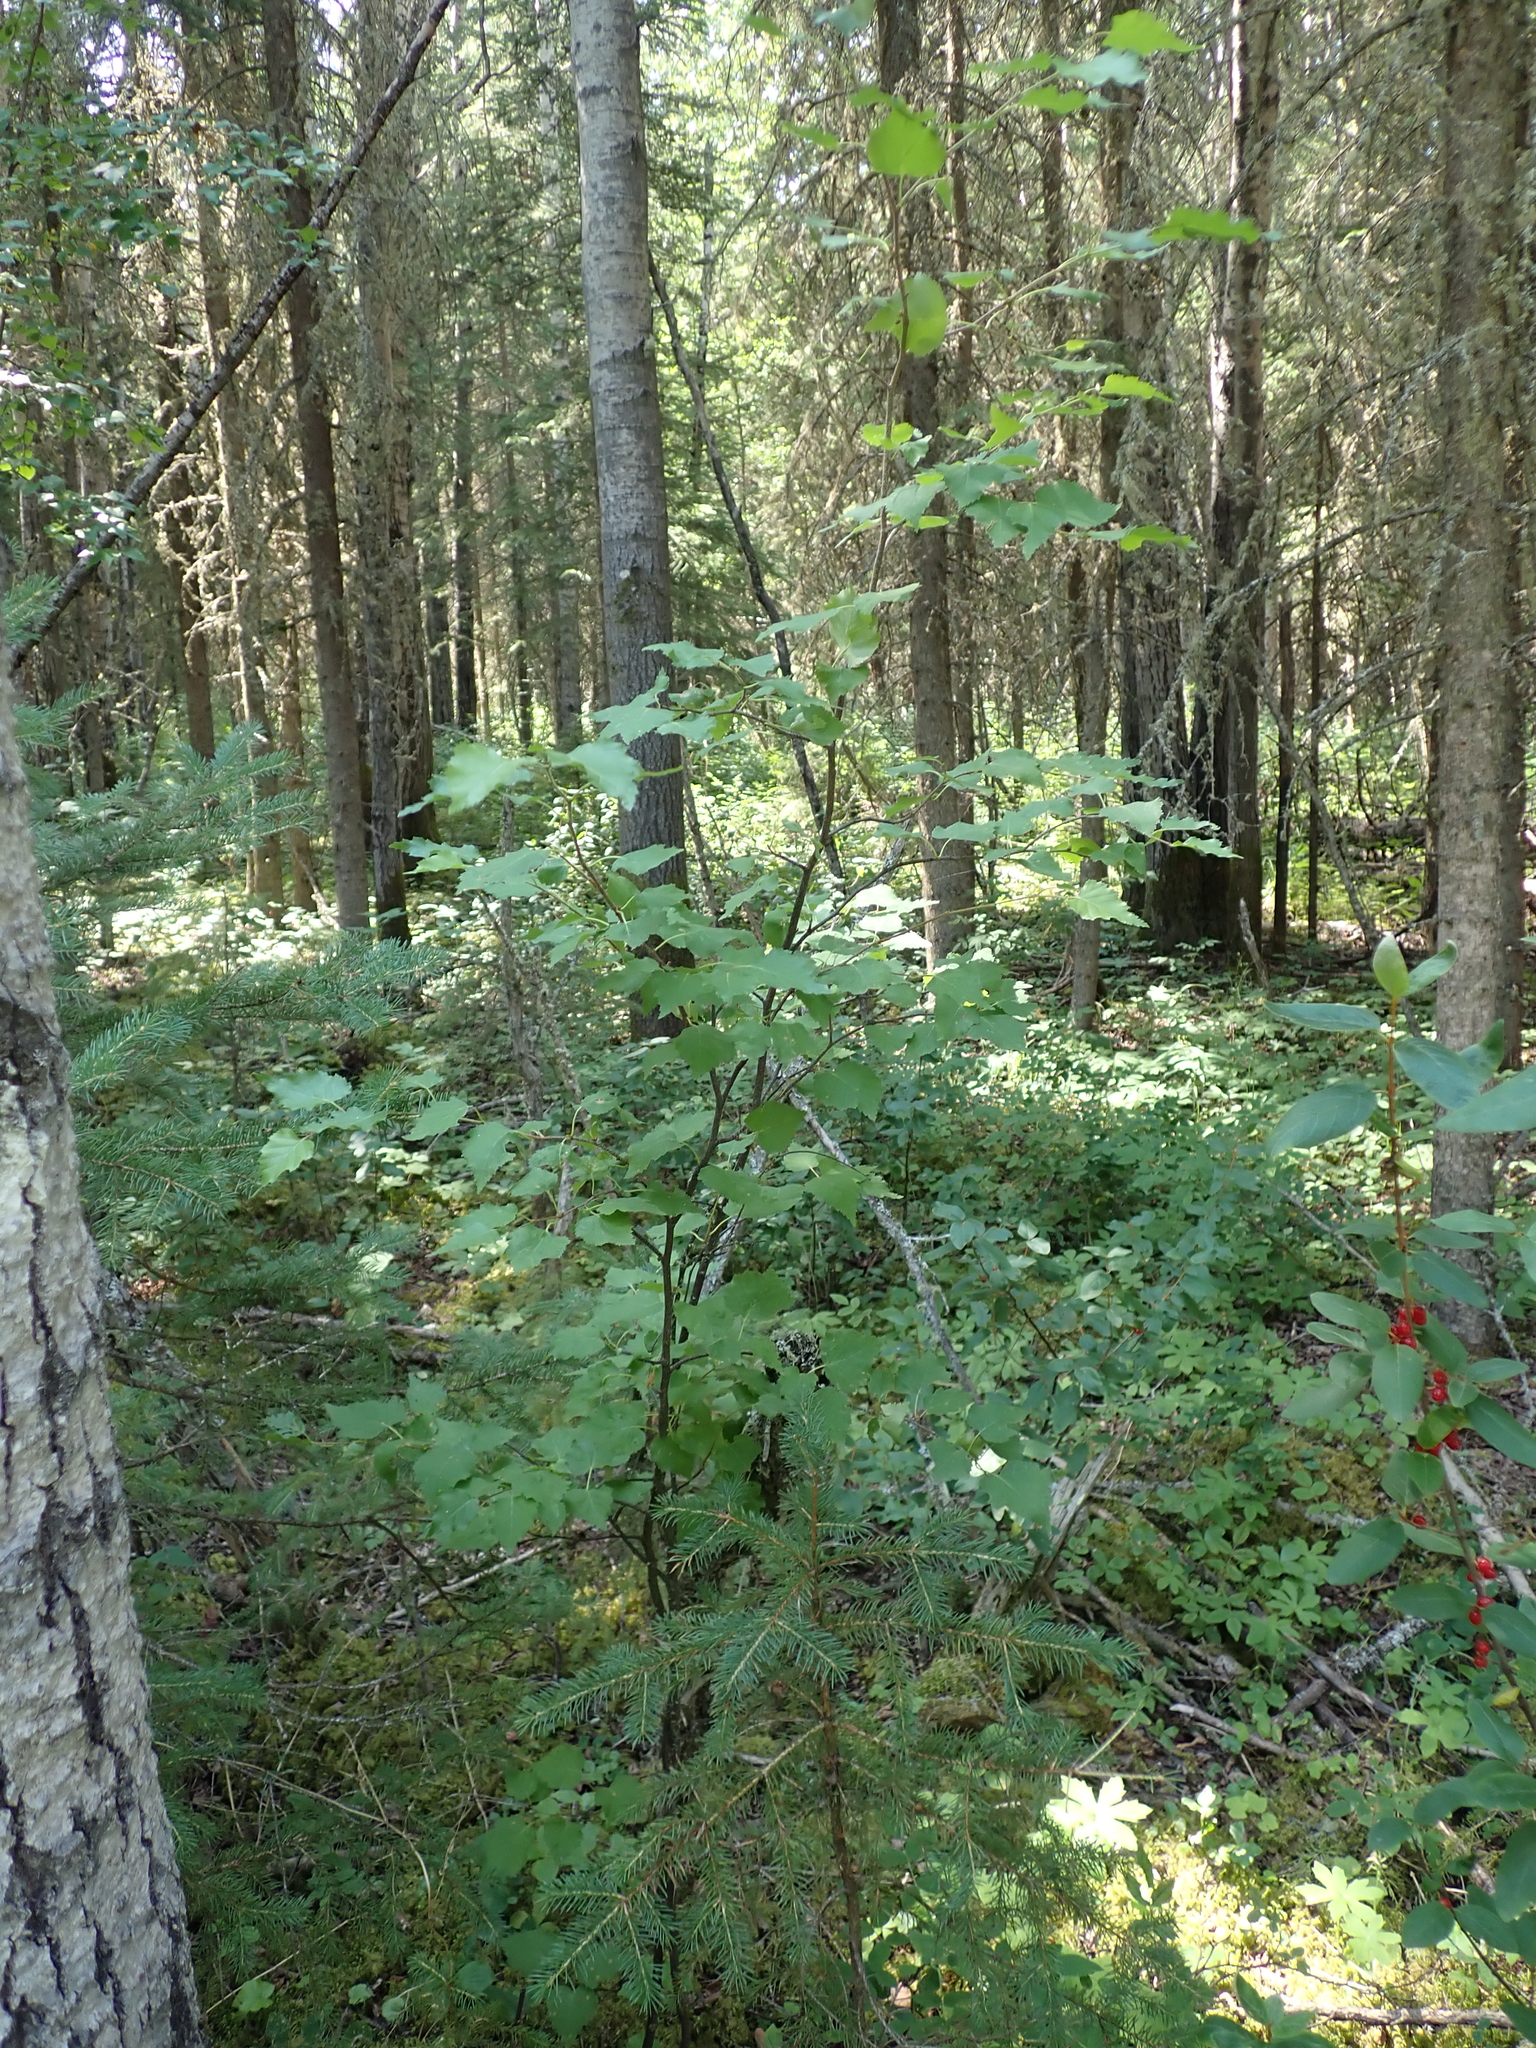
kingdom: Plantae
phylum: Tracheophyta
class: Magnoliopsida
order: Fagales
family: Betulaceae
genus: Betula
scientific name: Betula pendula
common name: Silver birch
